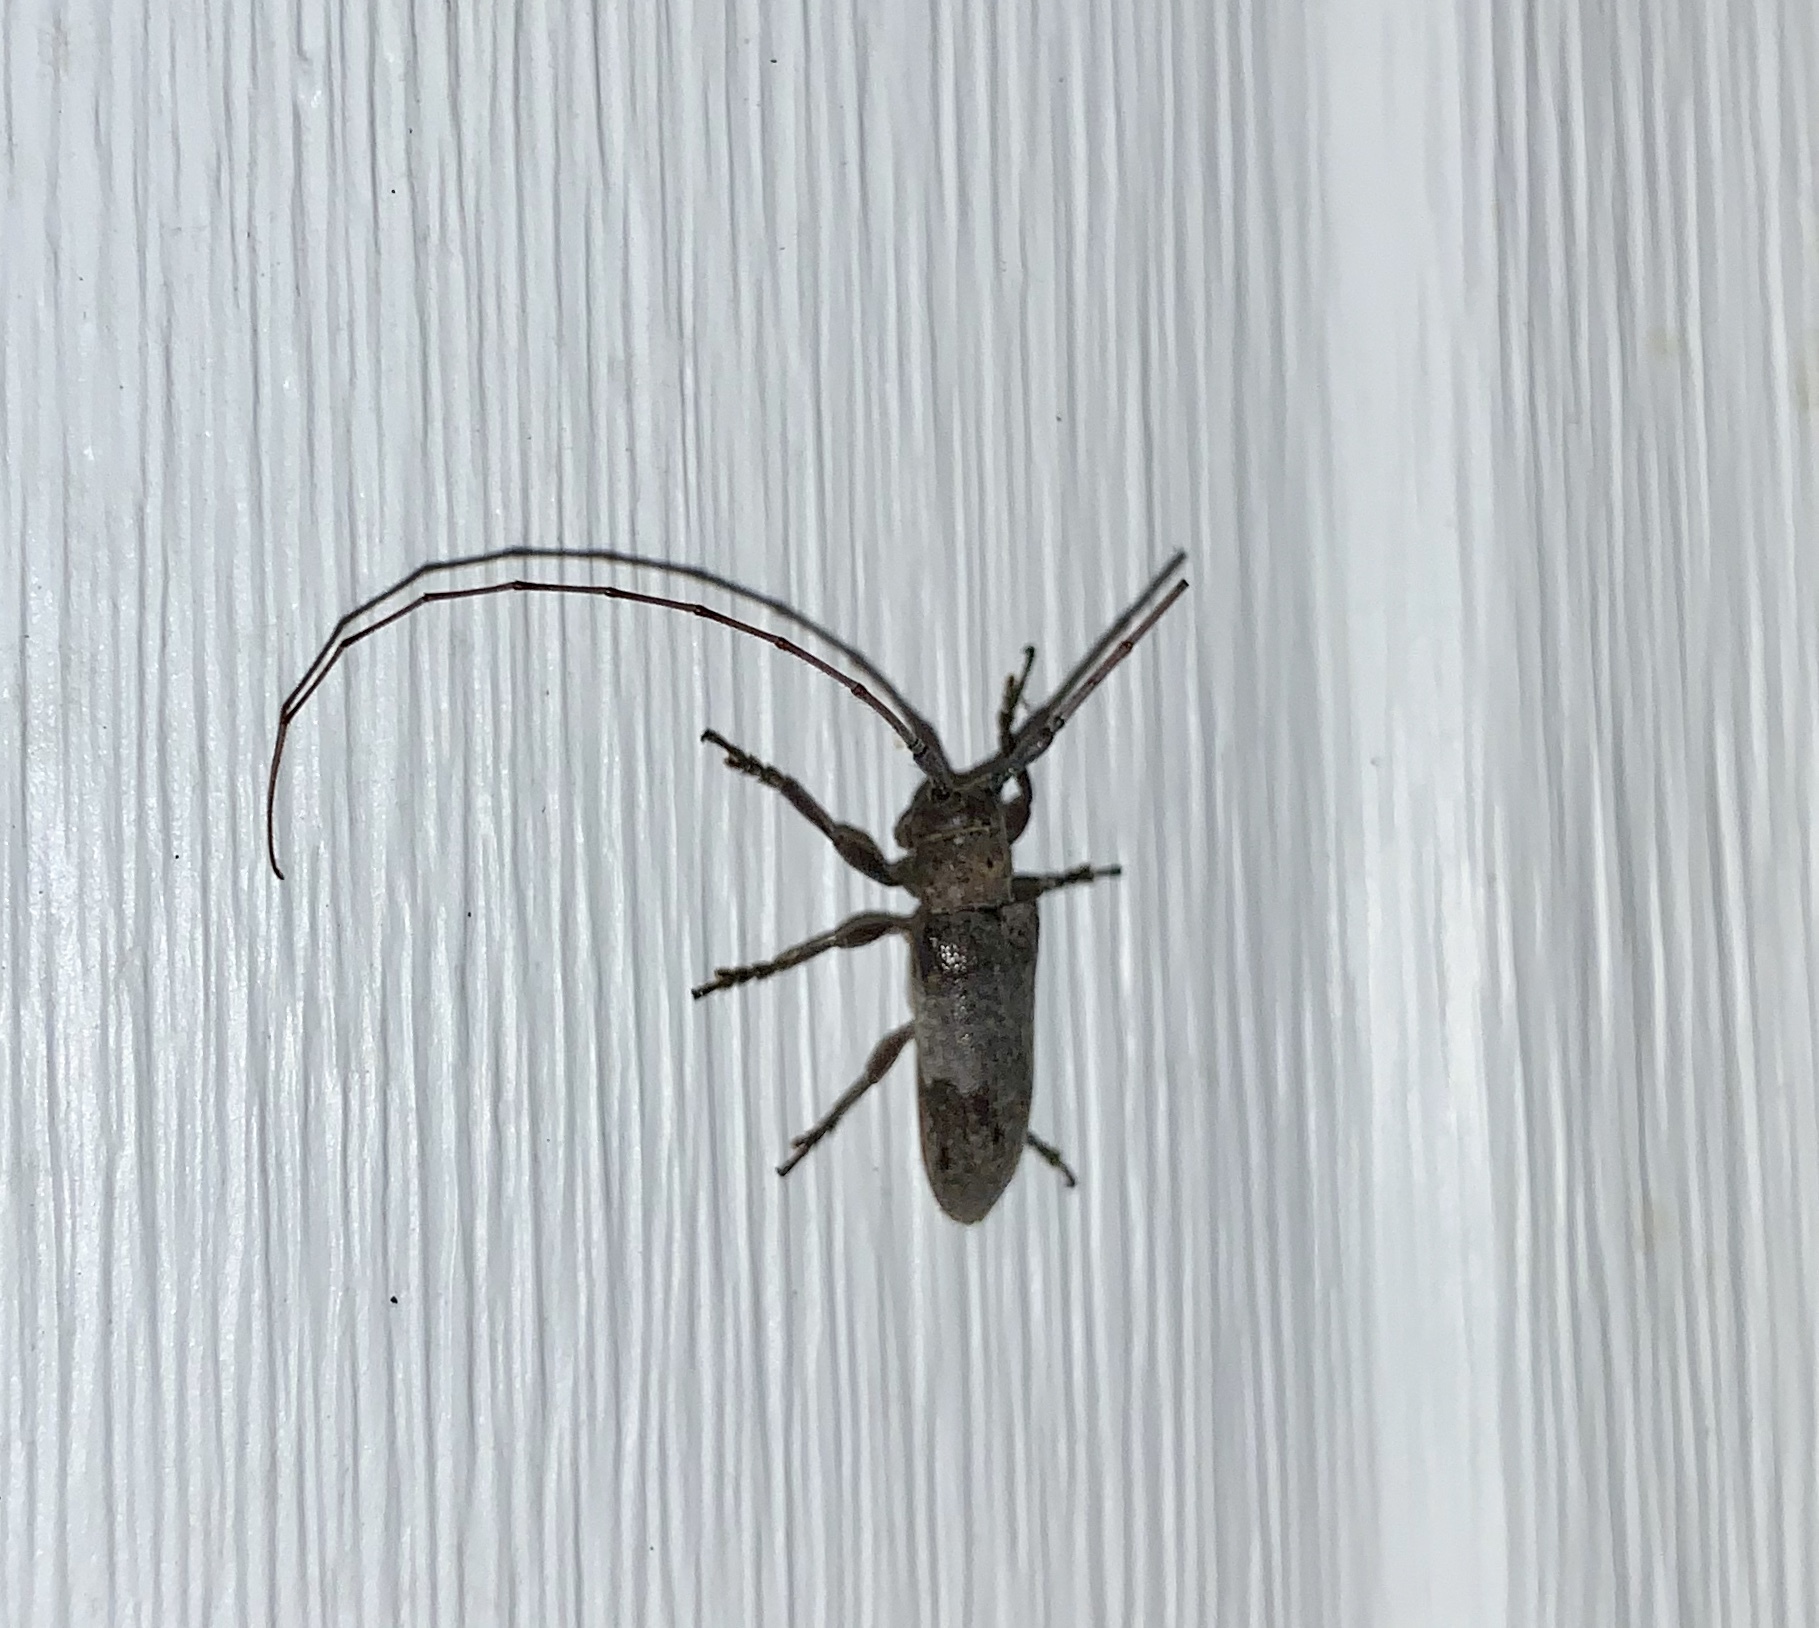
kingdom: Animalia
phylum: Arthropoda
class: Insecta
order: Coleoptera
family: Cerambycidae
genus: Oncideres
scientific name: Oncideres cingulata
